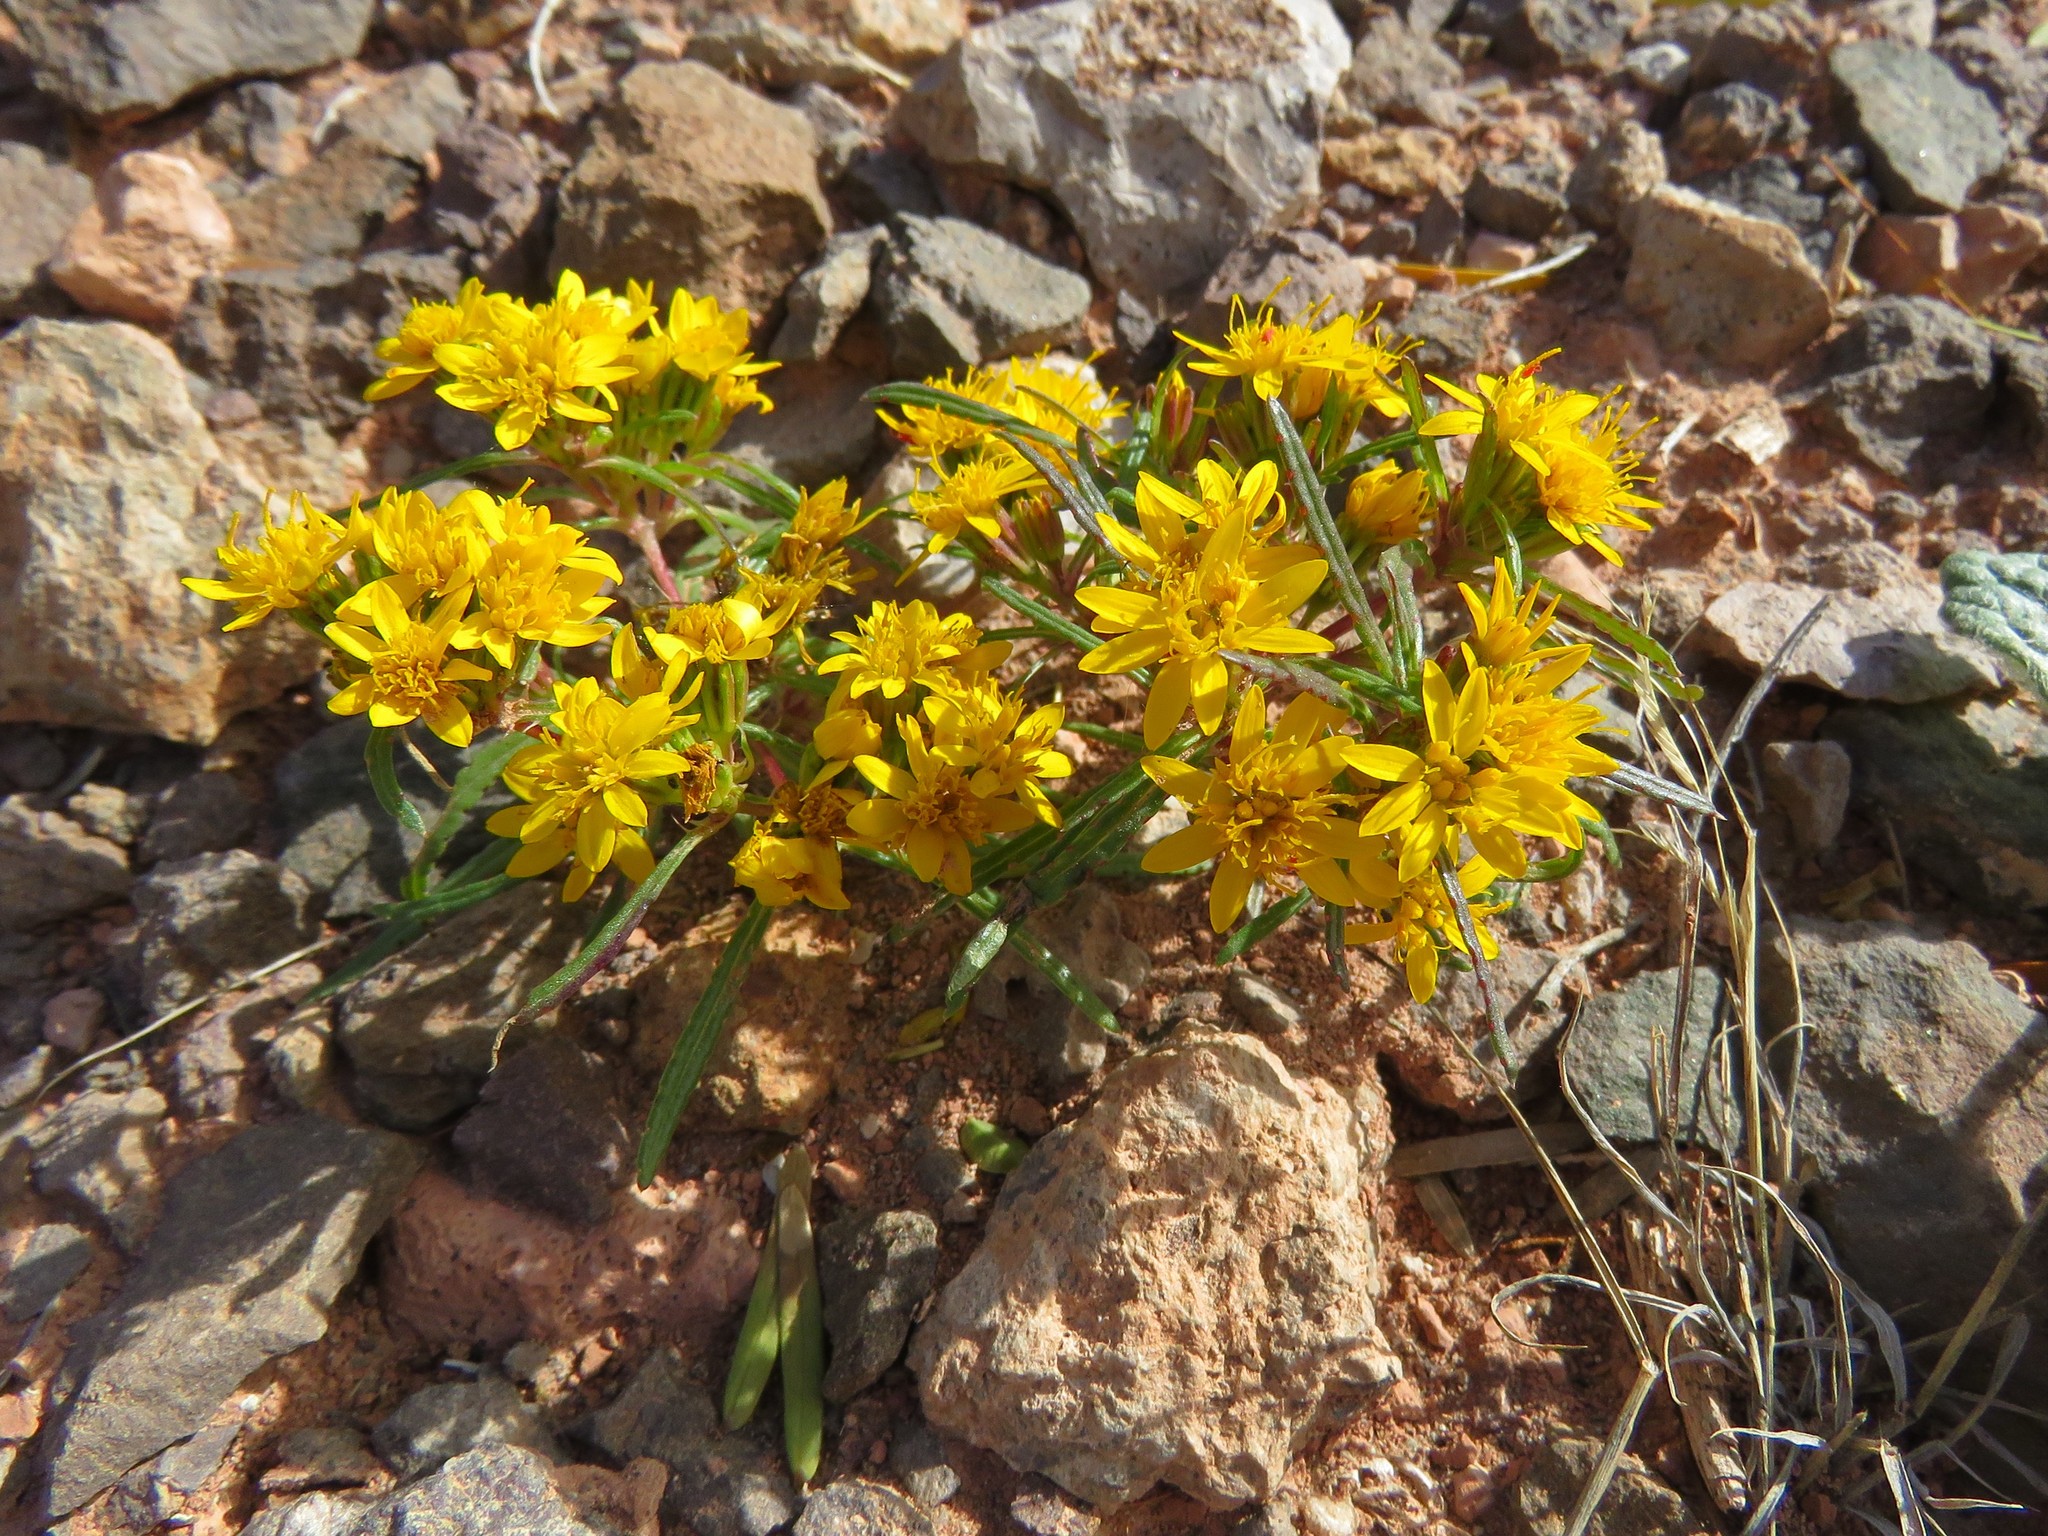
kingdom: Plantae
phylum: Tracheophyta
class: Magnoliopsida
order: Asterales
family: Asteraceae
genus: Pectis
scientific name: Pectis angustifolia
